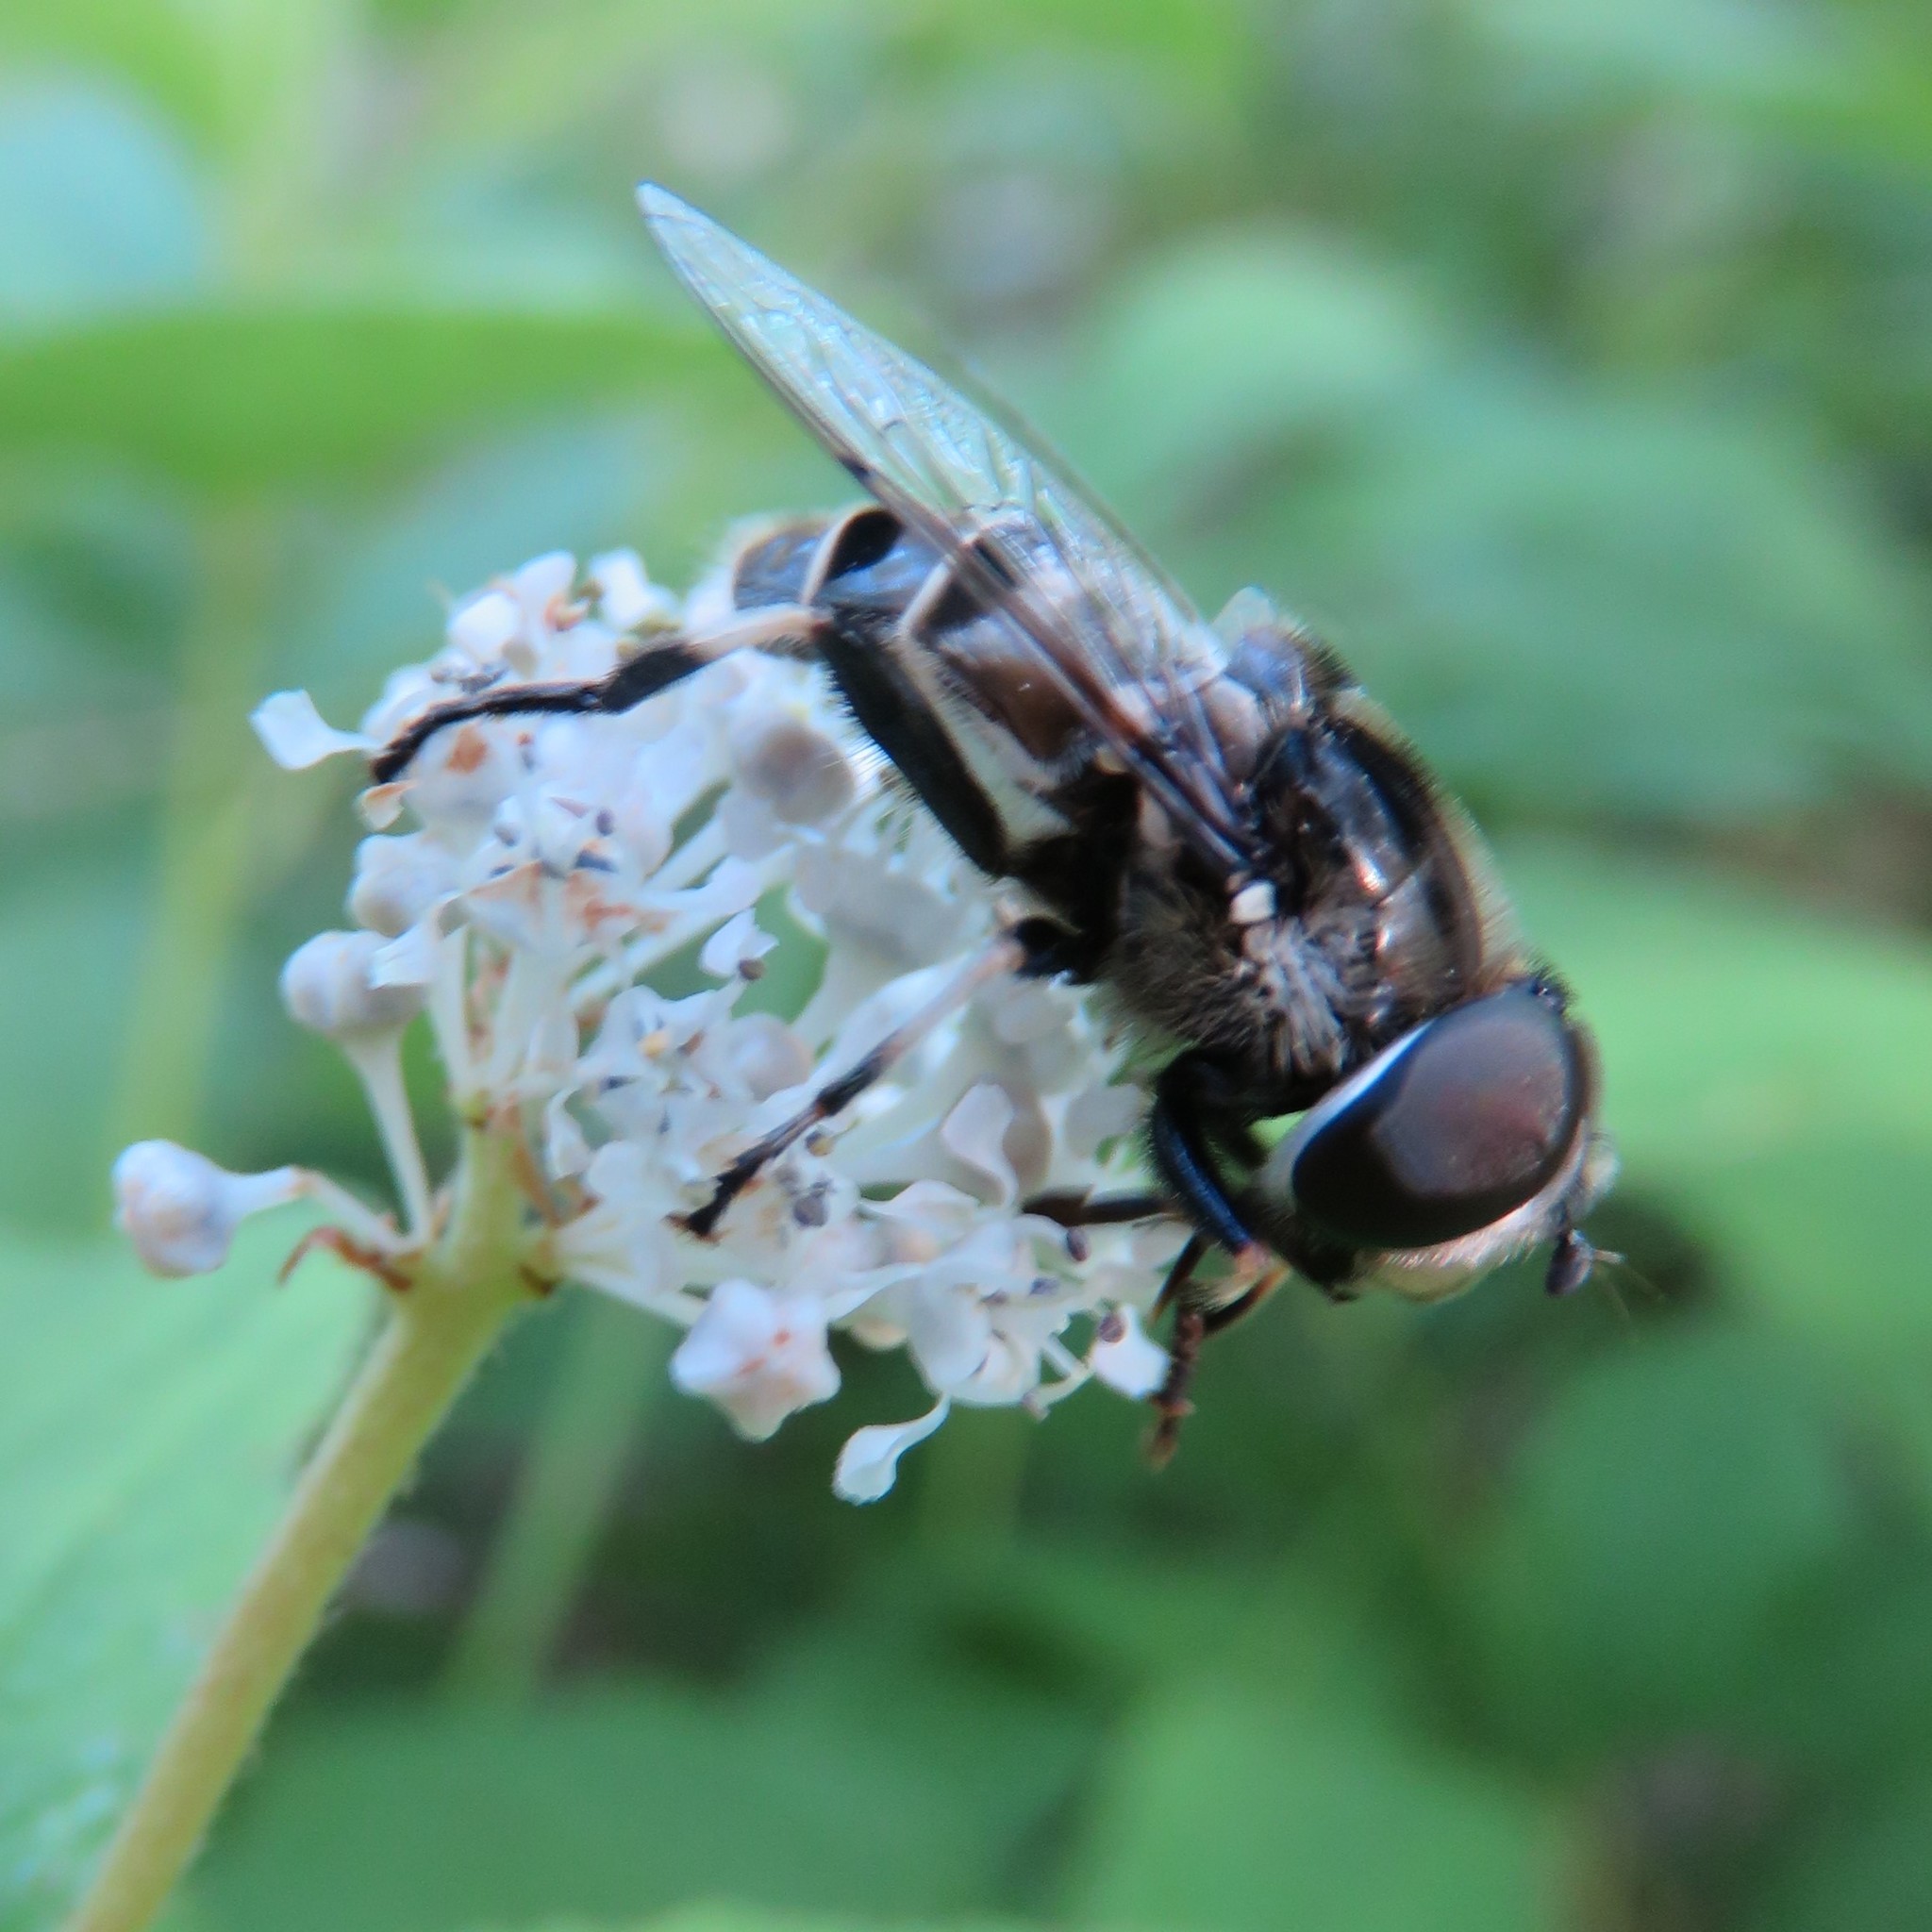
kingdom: Animalia
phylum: Arthropoda
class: Insecta
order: Diptera
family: Syrphidae
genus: Eristalis
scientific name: Eristalis dimidiata
